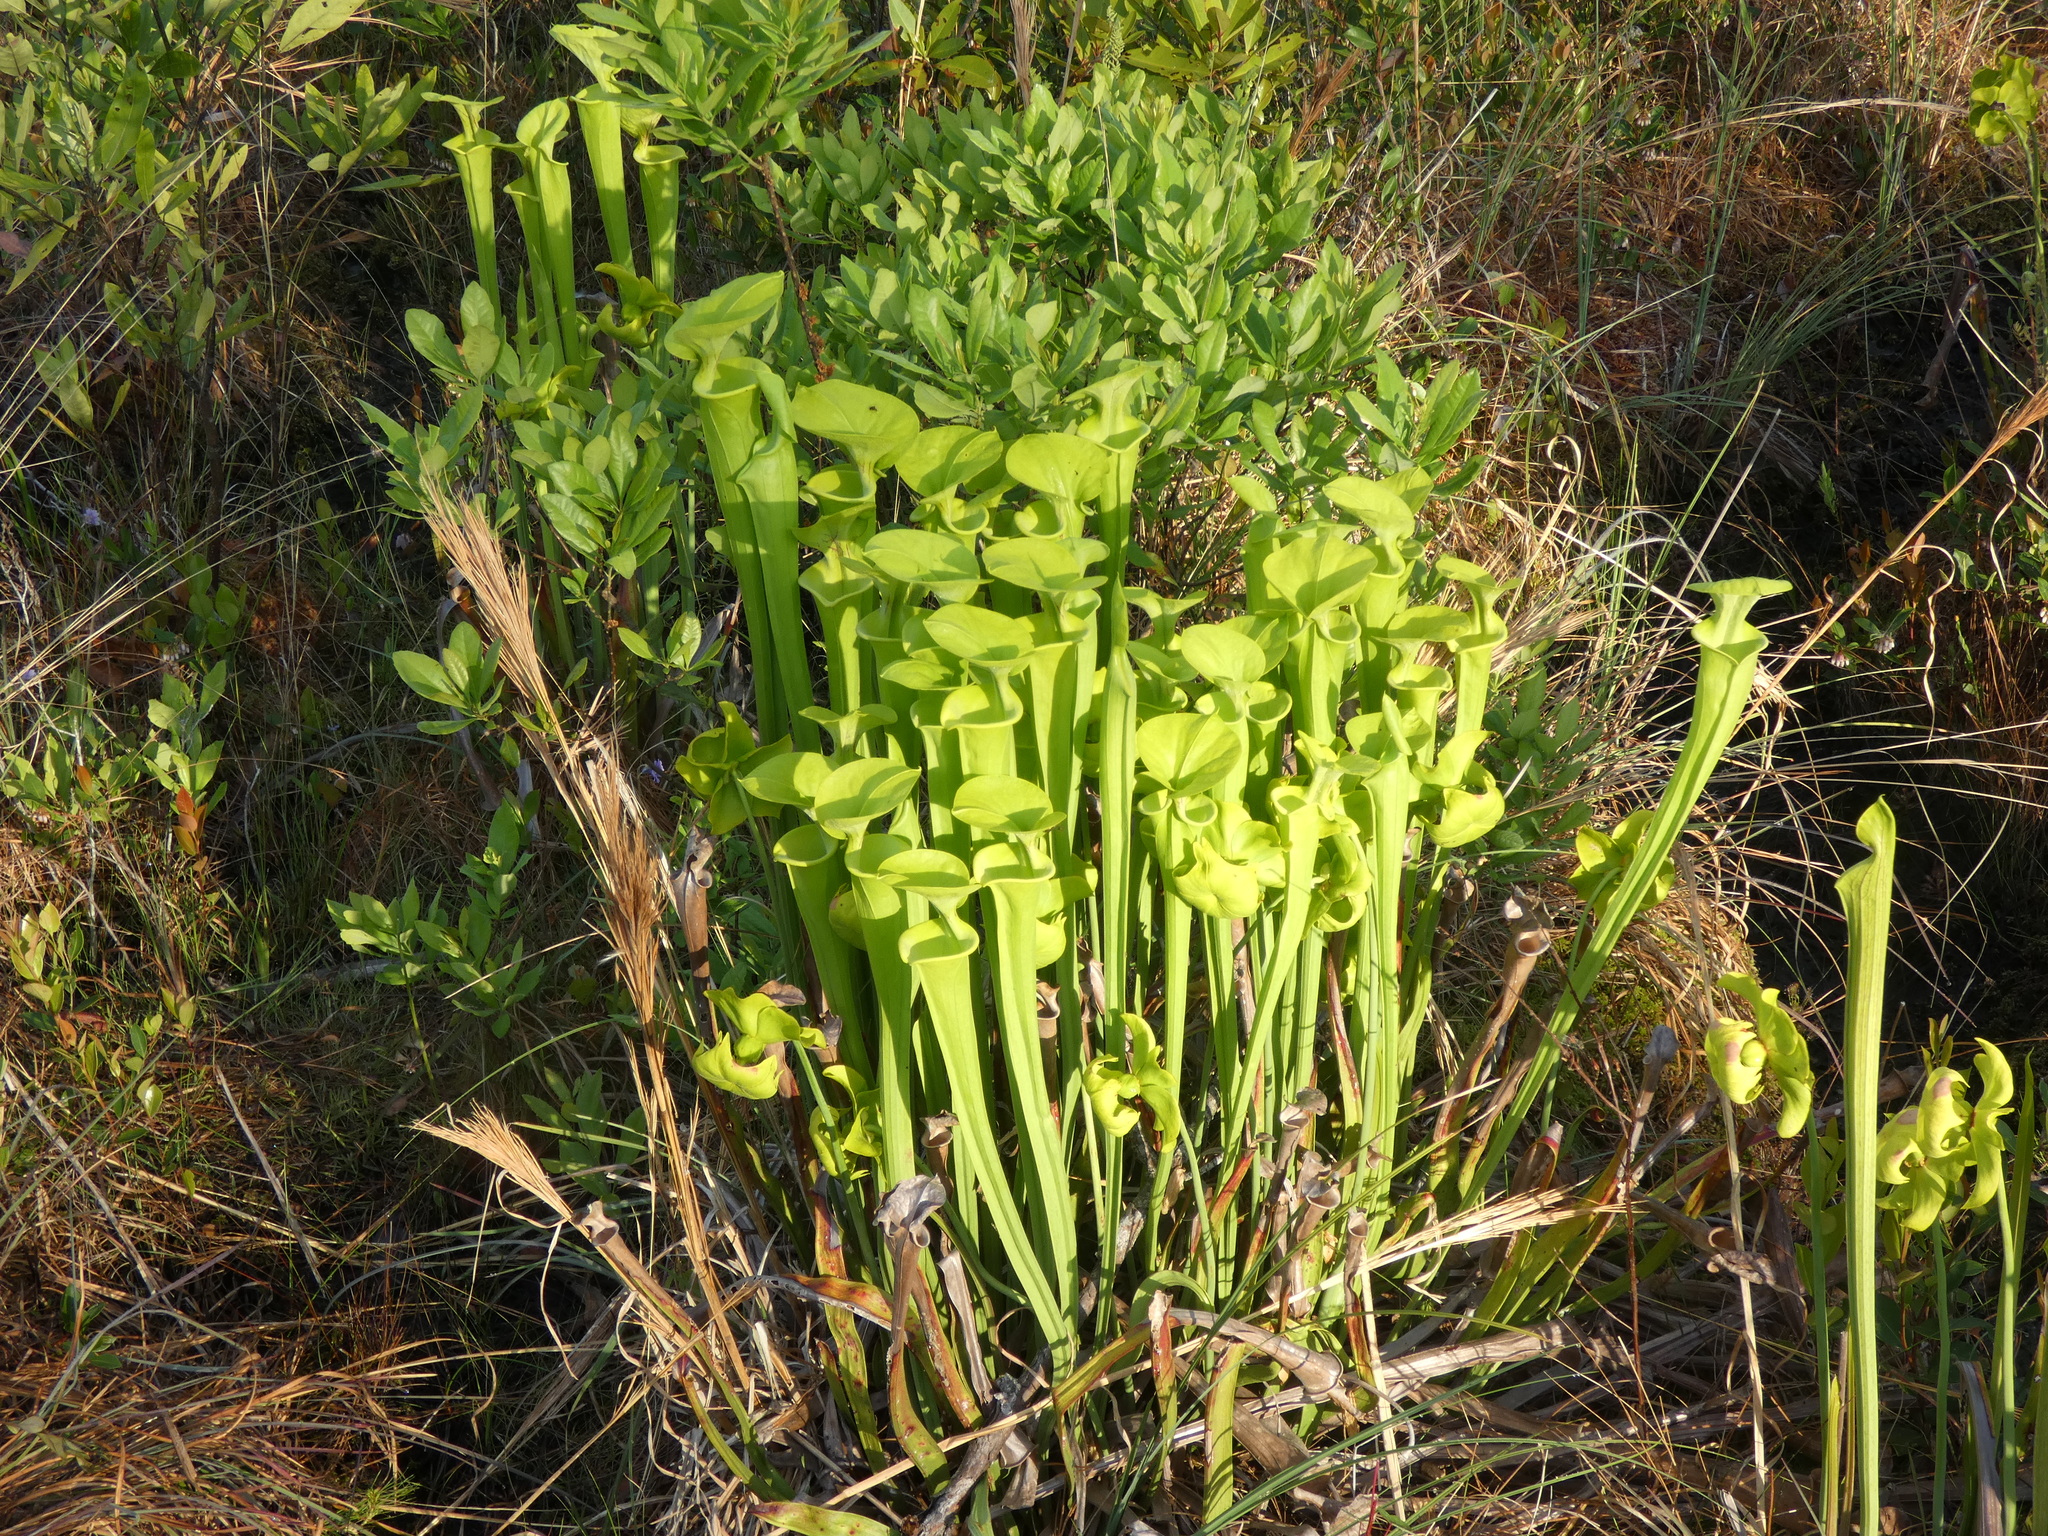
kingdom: Plantae
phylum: Tracheophyta
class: Magnoliopsida
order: Ericales
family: Sarraceniaceae
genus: Sarracenia
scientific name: Sarracenia flava
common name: Trumpets
